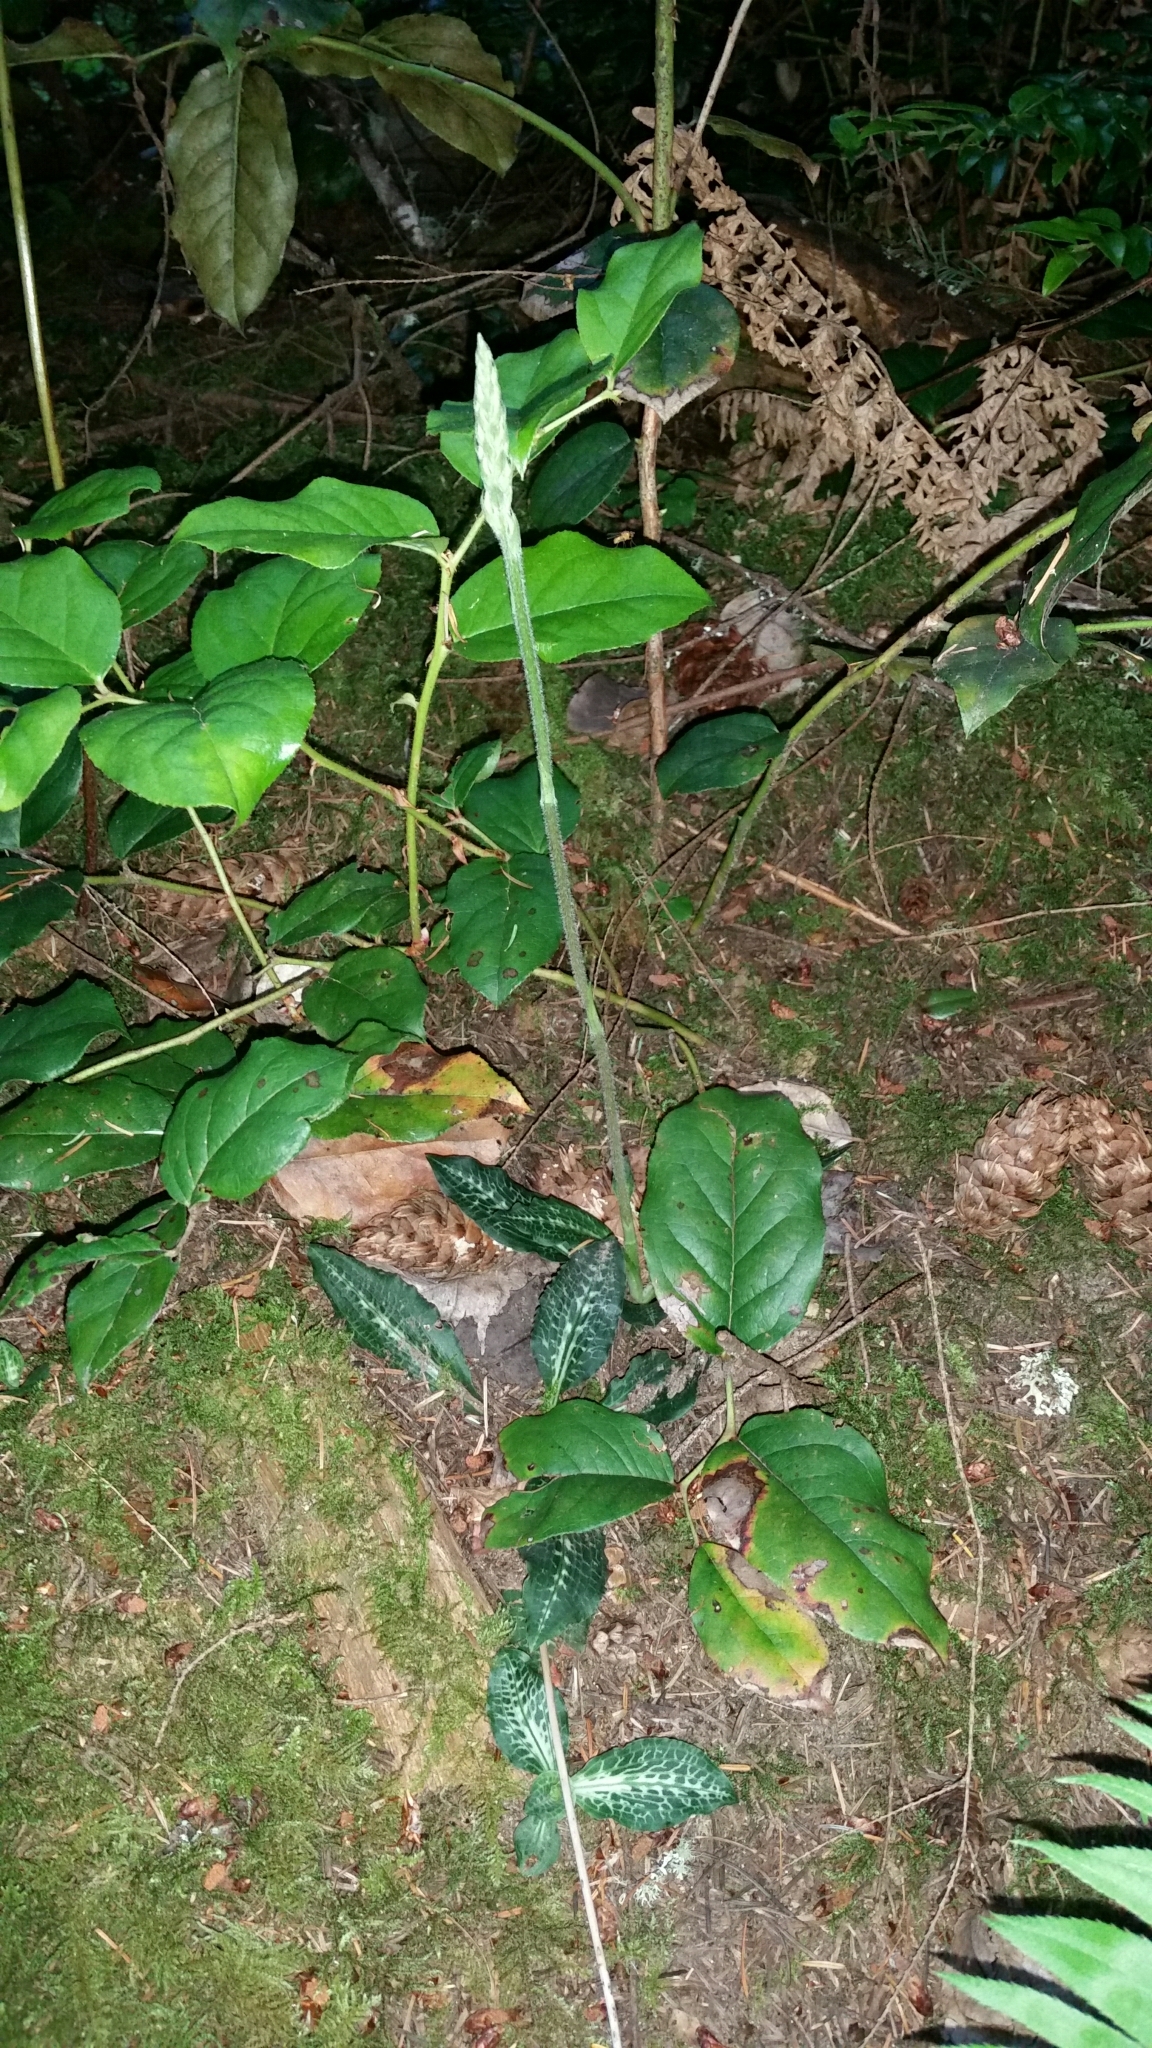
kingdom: Plantae
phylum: Tracheophyta
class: Liliopsida
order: Asparagales
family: Orchidaceae
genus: Goodyera
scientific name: Goodyera oblongifolia
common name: Giant rattlesnake-plantain
